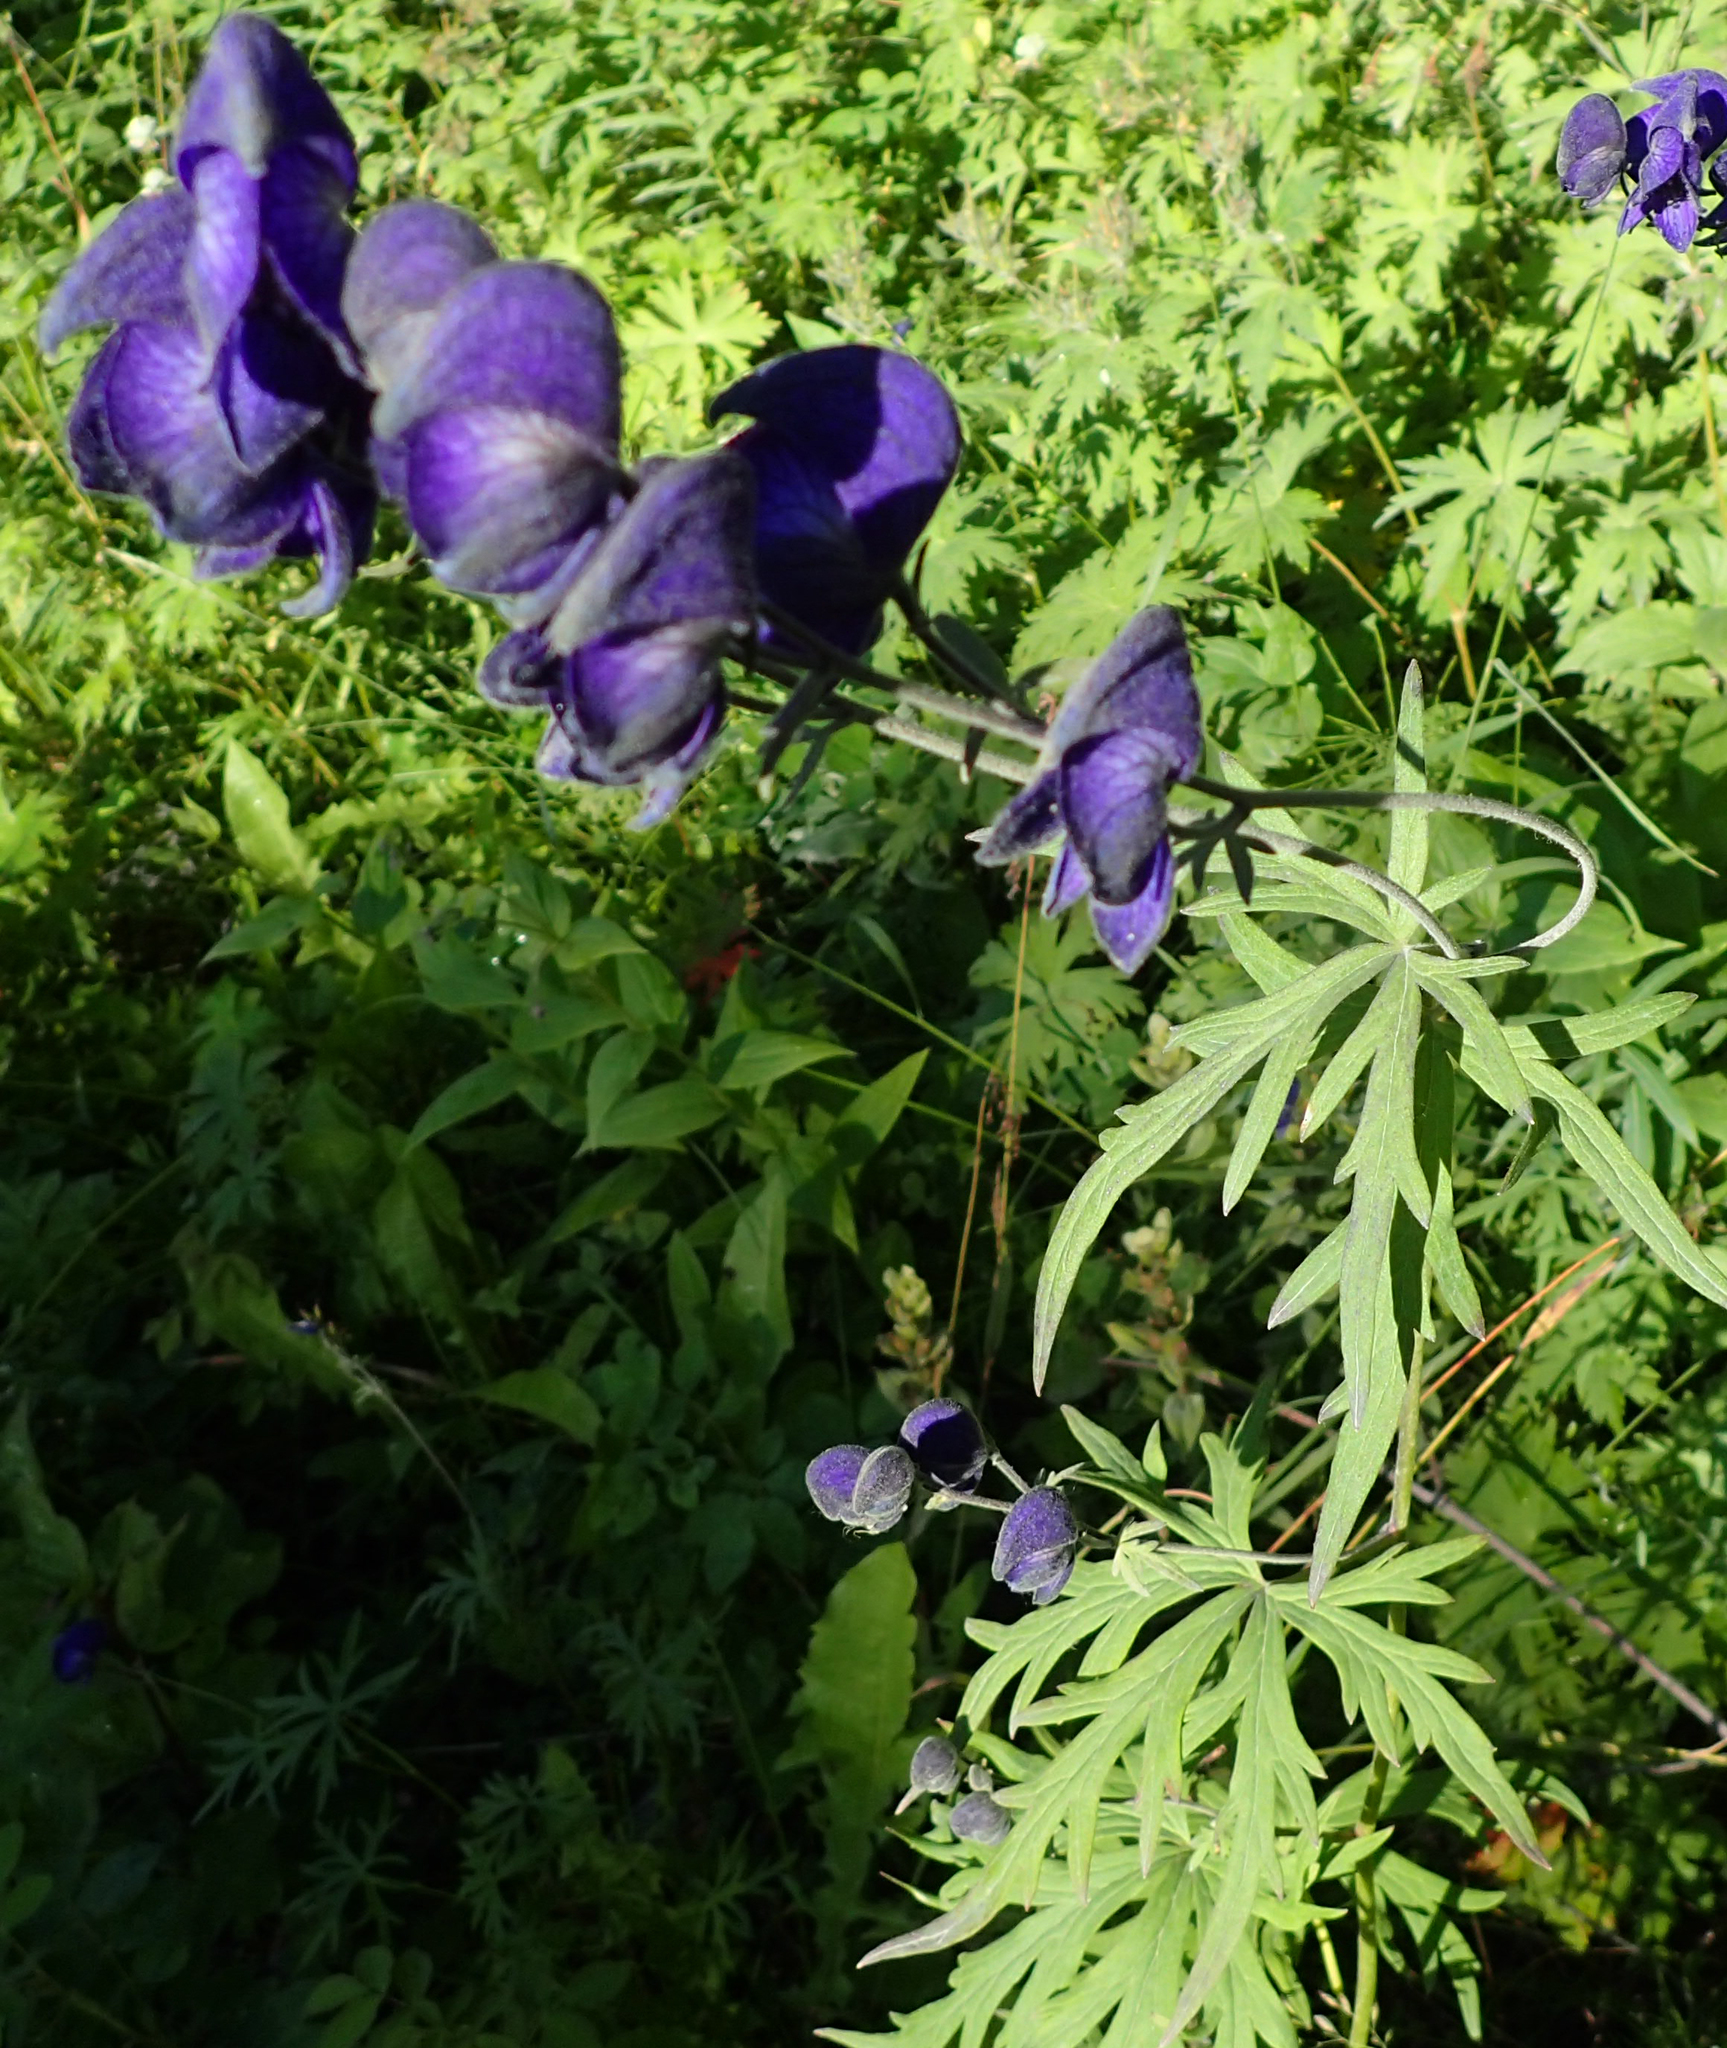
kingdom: Plantae
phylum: Tracheophyta
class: Magnoliopsida
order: Ranunculales
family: Ranunculaceae
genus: Aconitum
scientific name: Aconitum delphiniifolium
